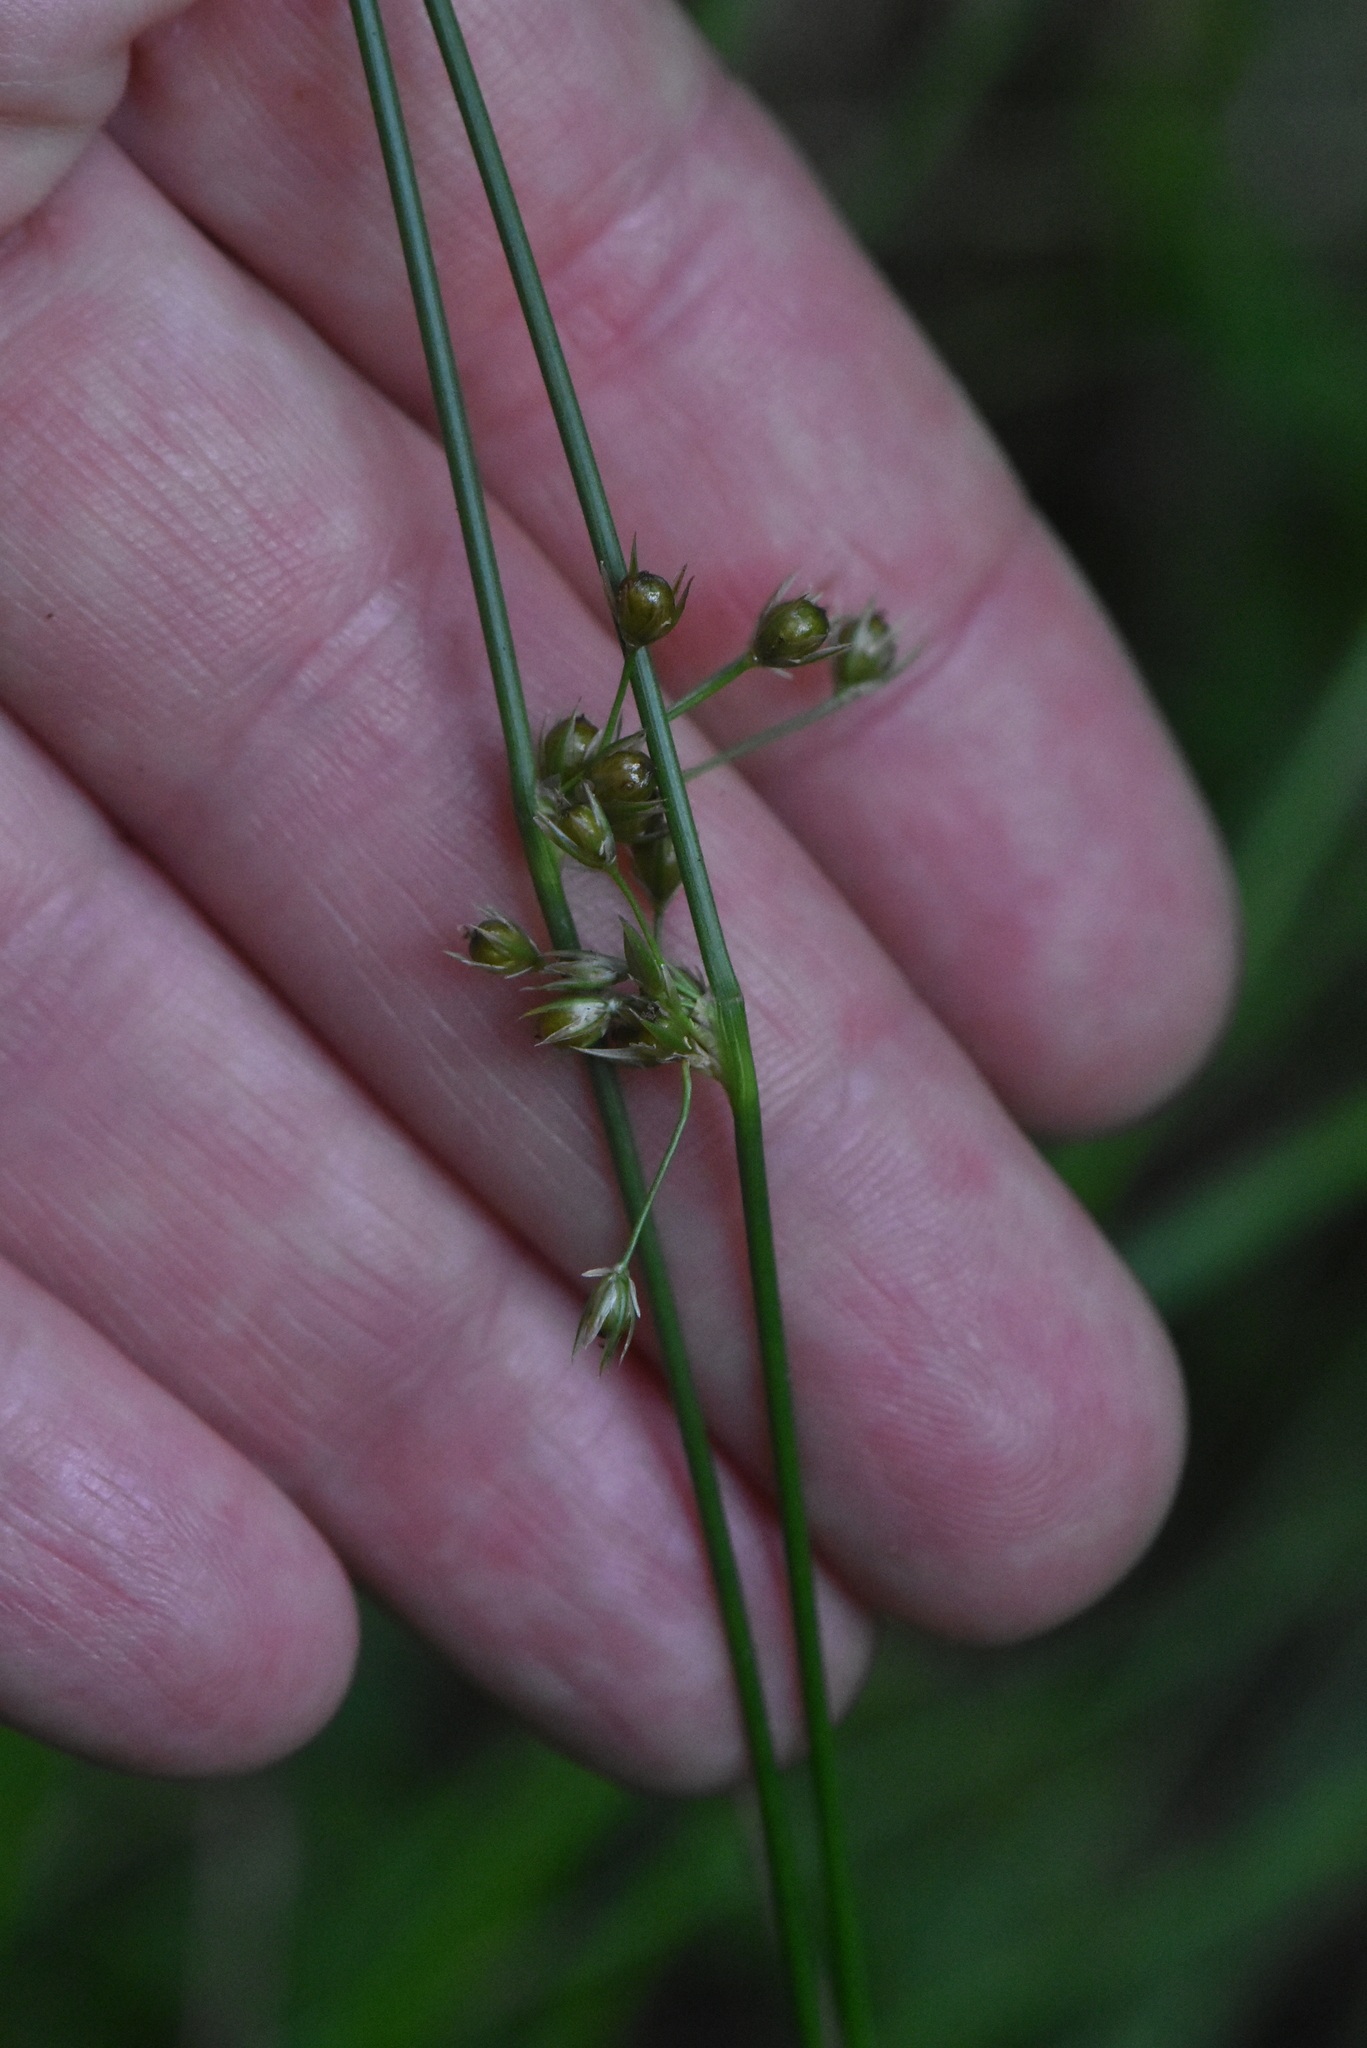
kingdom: Plantae
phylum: Tracheophyta
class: Liliopsida
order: Poales
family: Juncaceae
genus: Juncus
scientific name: Juncus filiformis
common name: Thread rush
